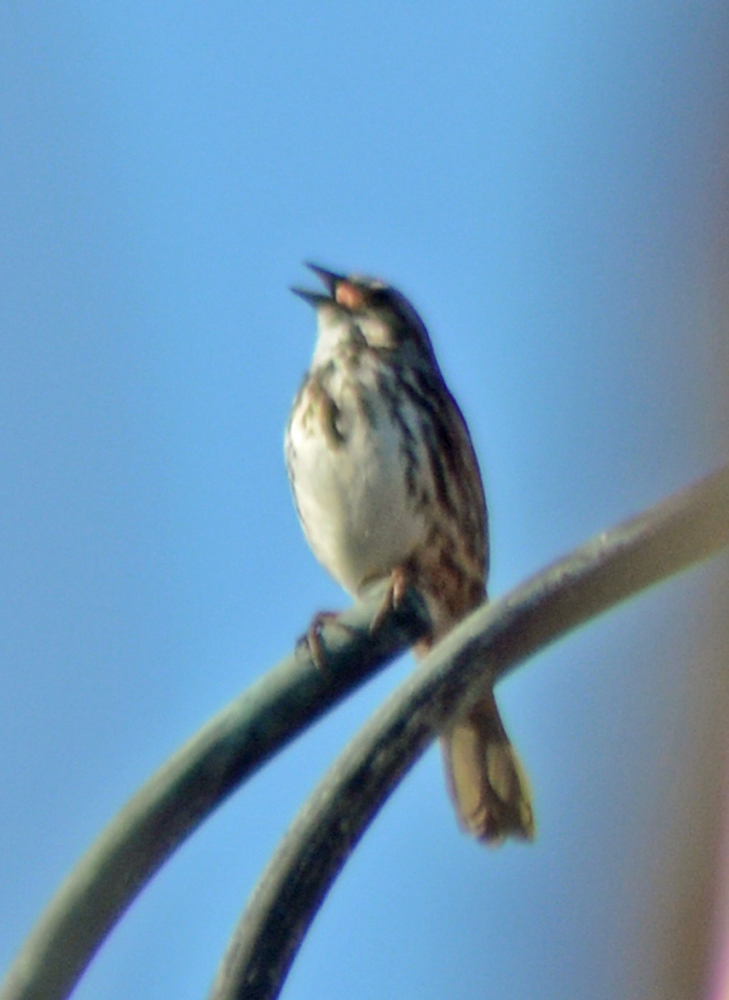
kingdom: Animalia
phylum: Chordata
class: Aves
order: Passeriformes
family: Passerellidae
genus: Melospiza
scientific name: Melospiza melodia
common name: Song sparrow
